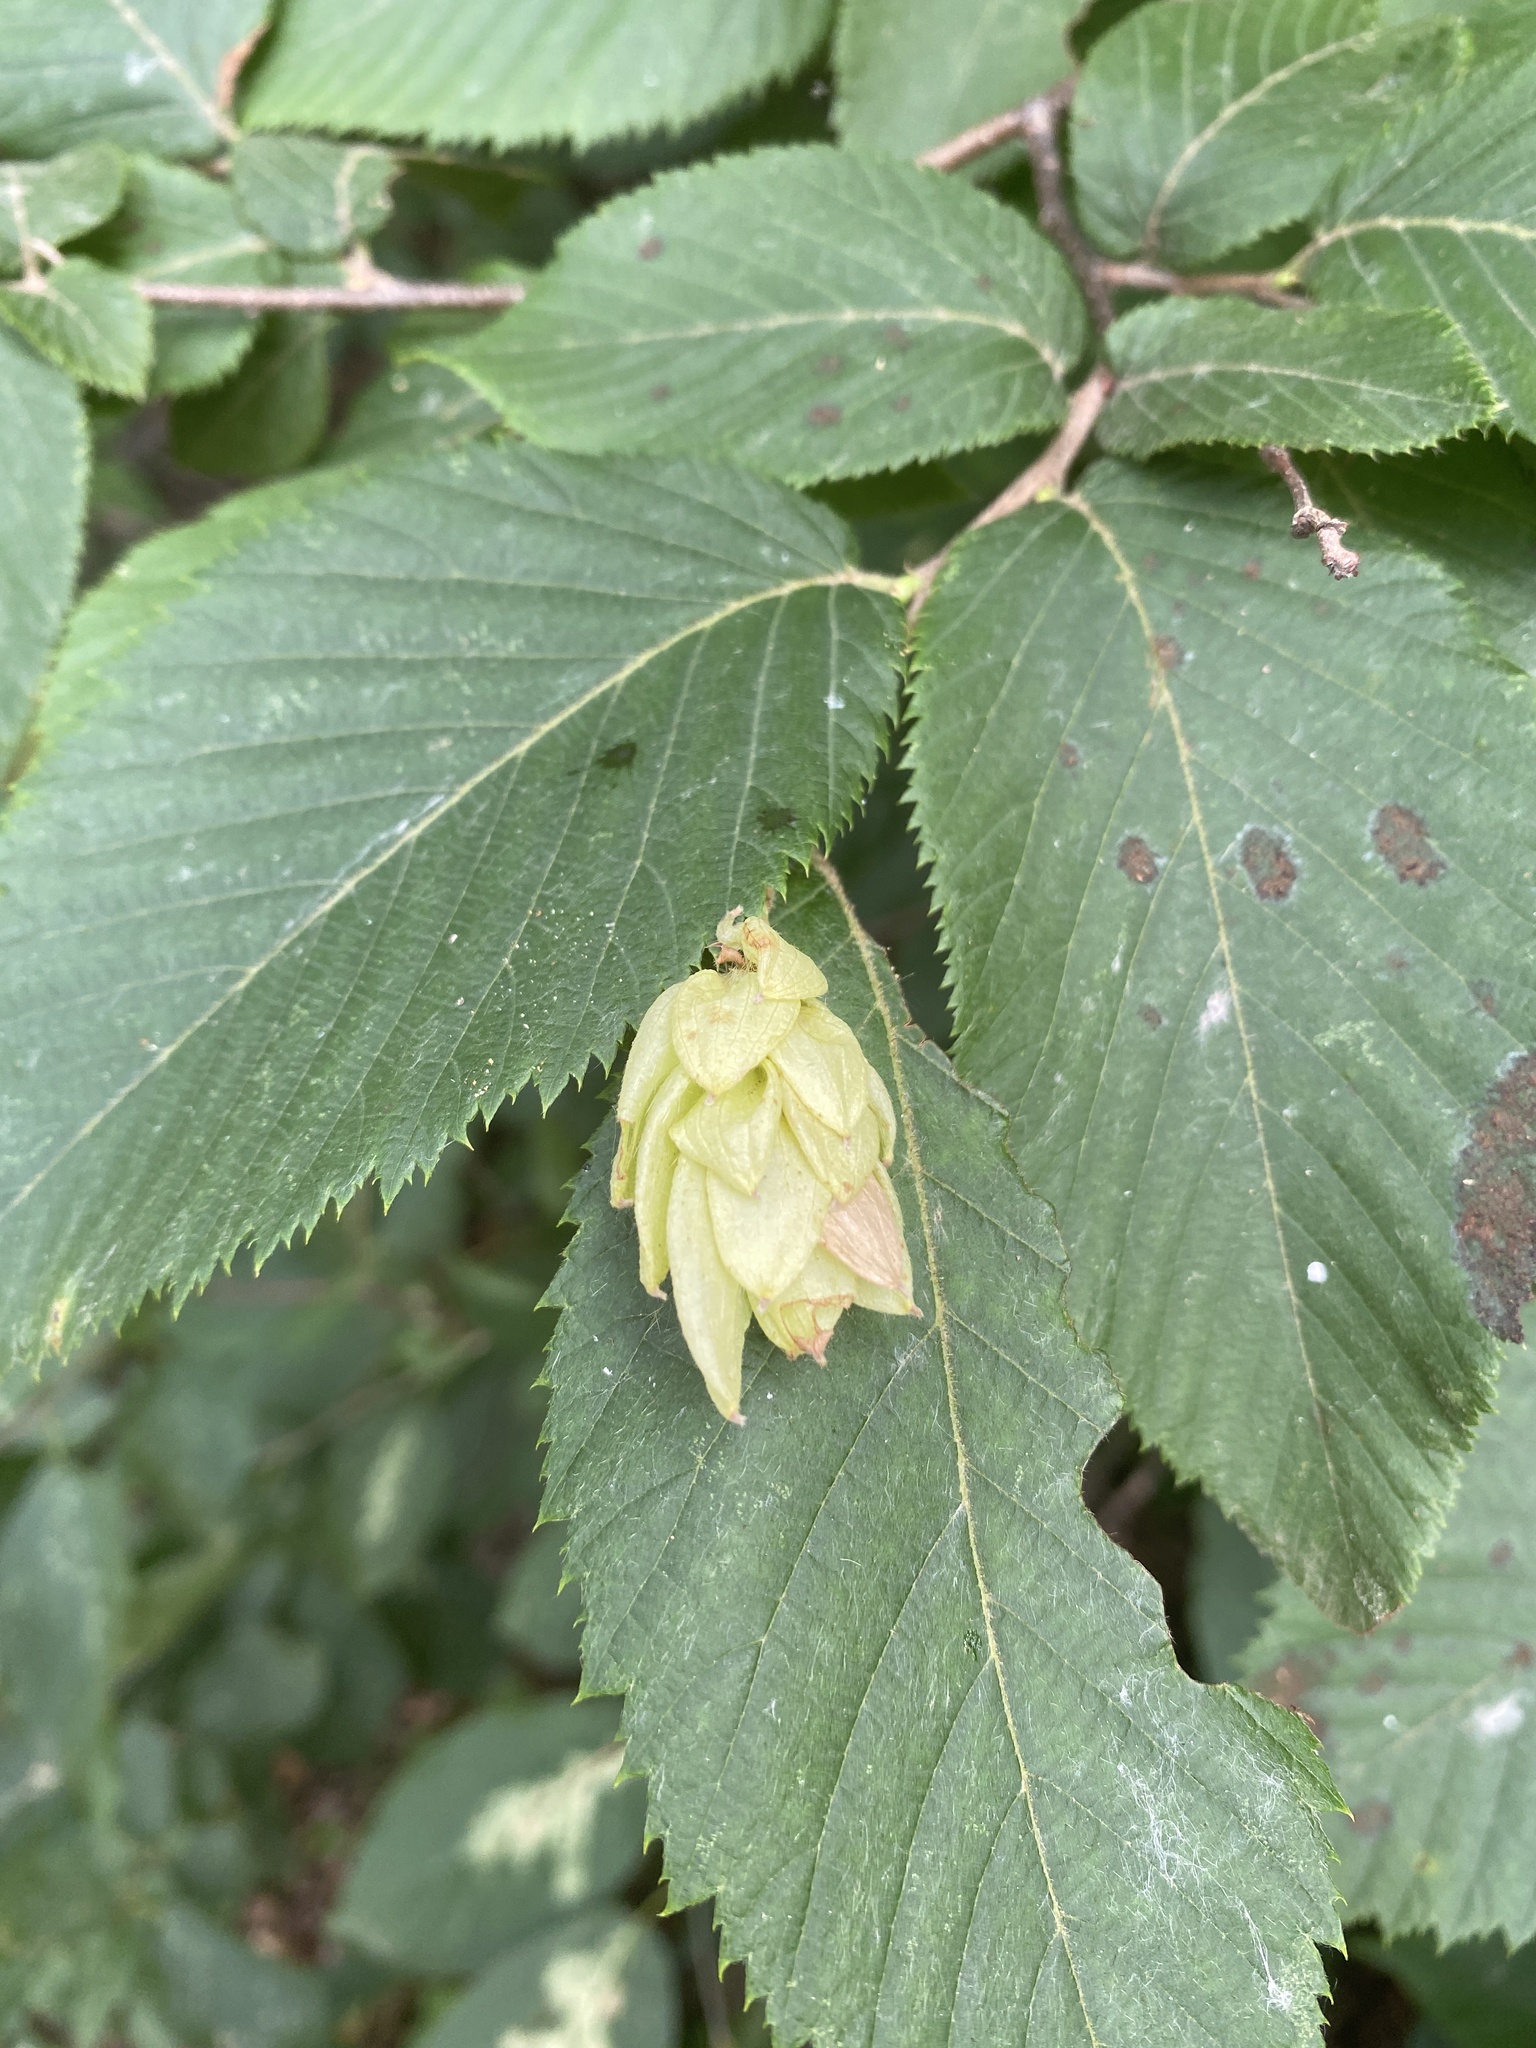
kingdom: Plantae
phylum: Tracheophyta
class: Magnoliopsida
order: Fagales
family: Betulaceae
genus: Ostrya
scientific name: Ostrya virginiana
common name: Ironwood
